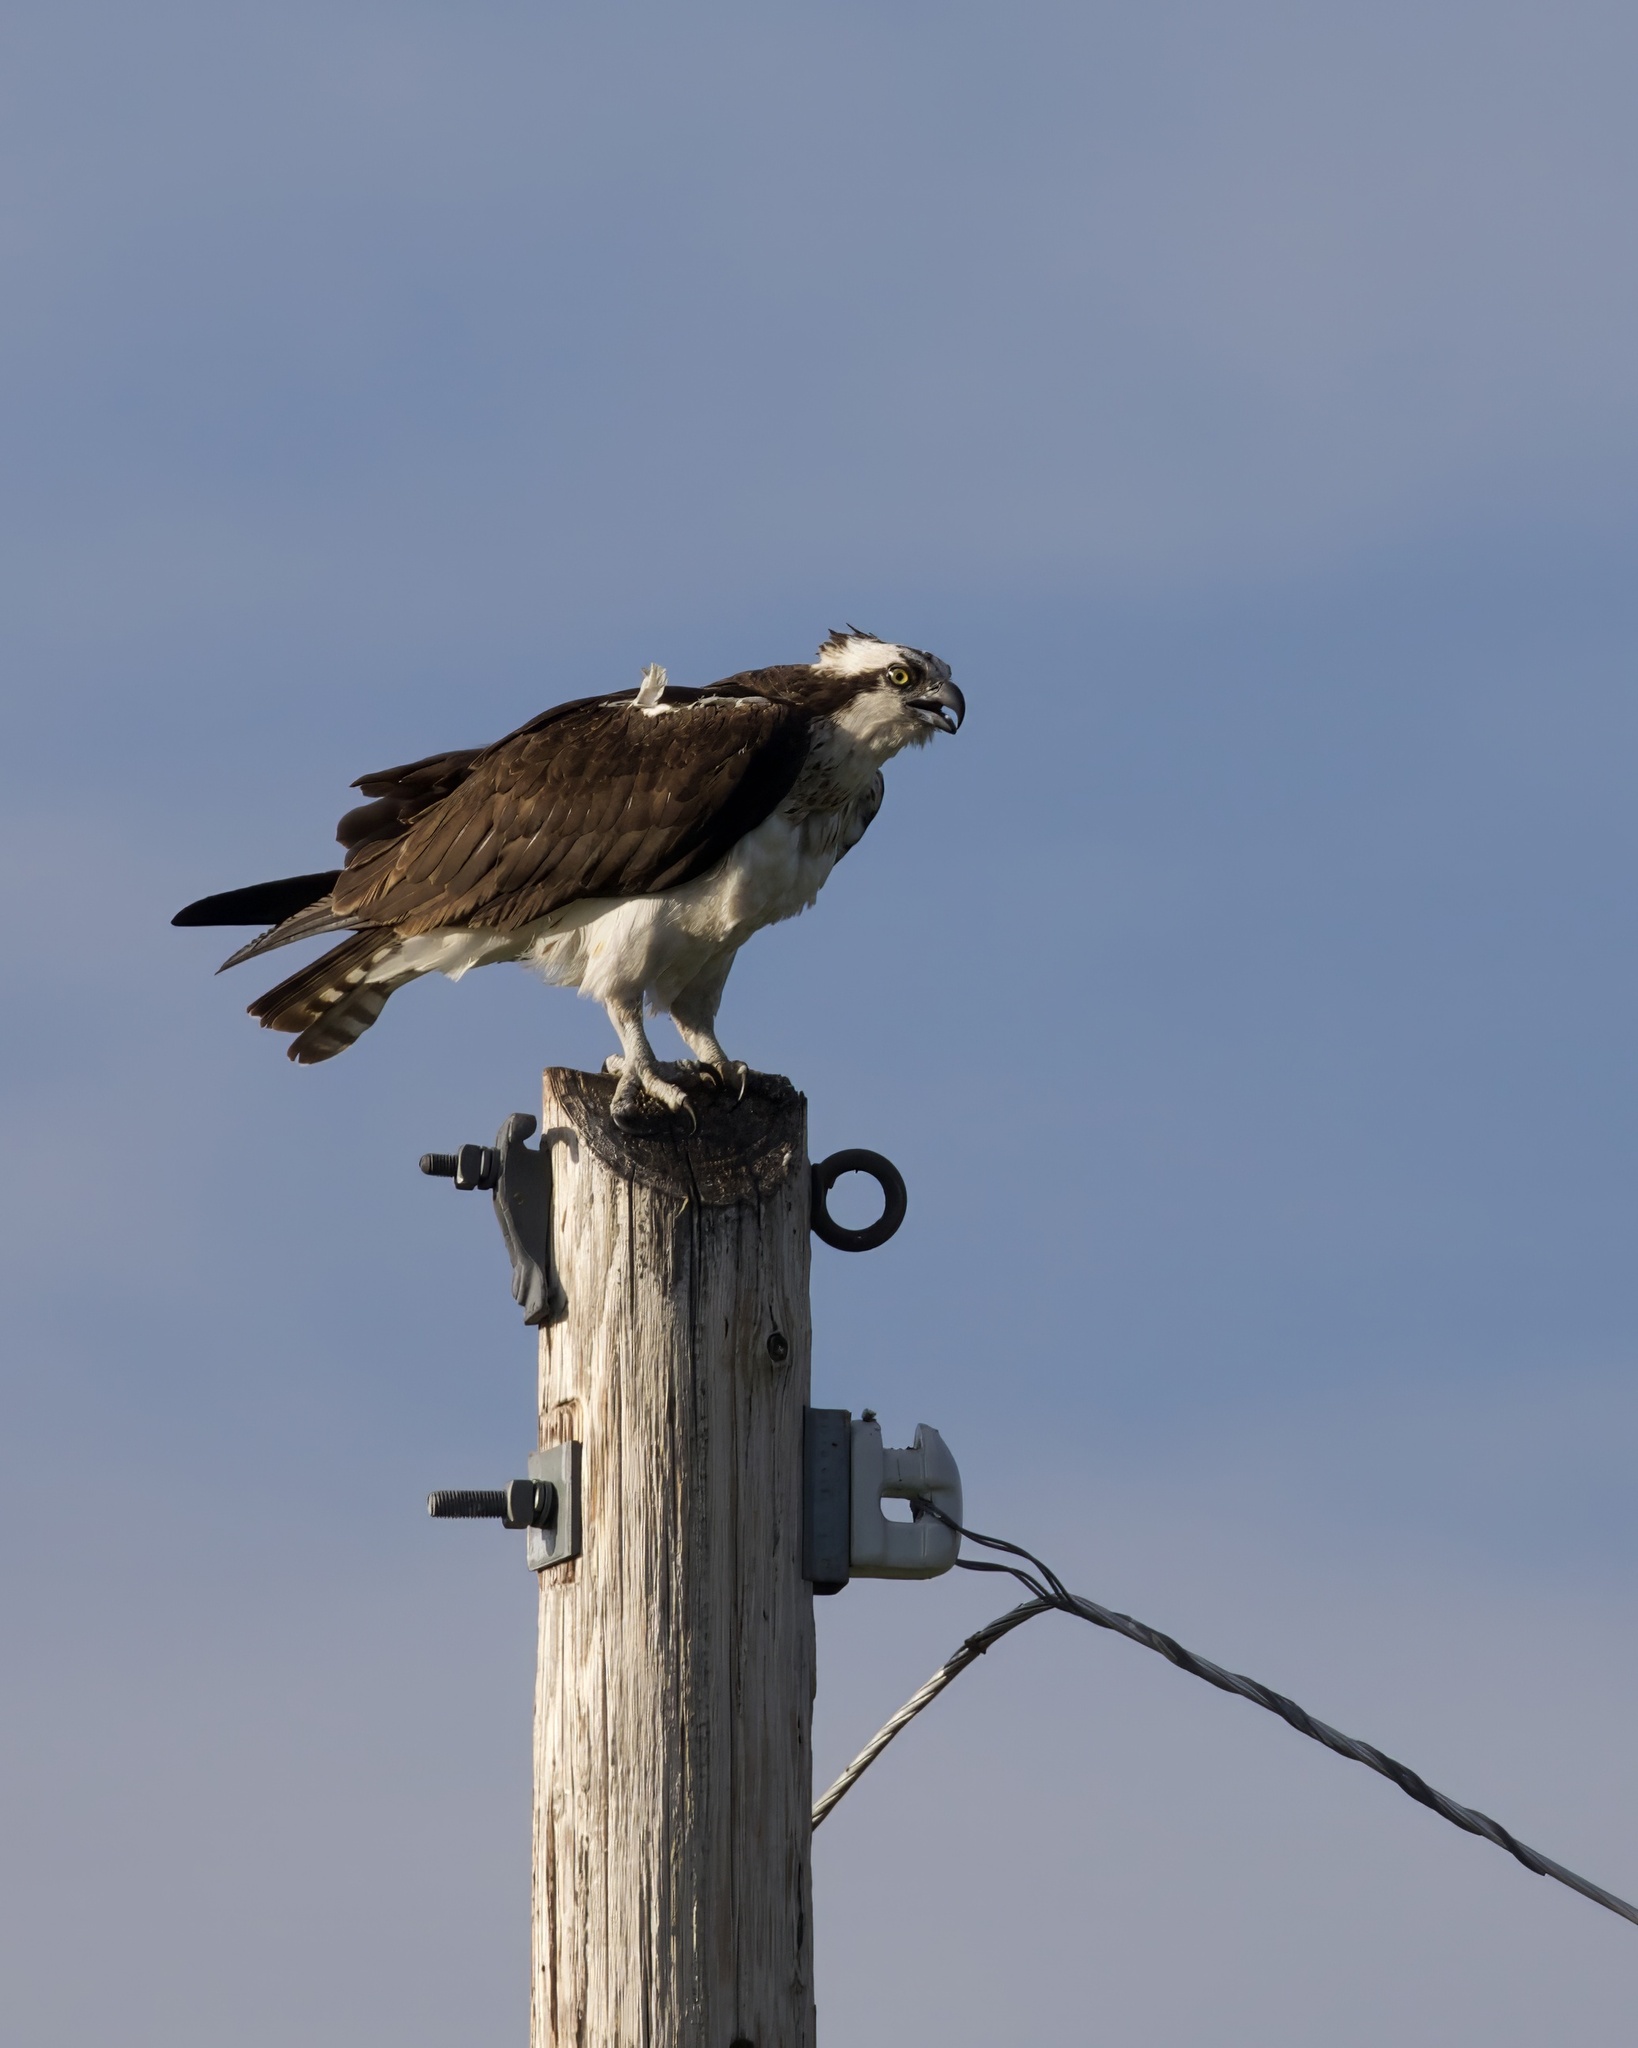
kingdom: Animalia
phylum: Chordata
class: Aves
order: Accipitriformes
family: Pandionidae
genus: Pandion
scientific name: Pandion haliaetus
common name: Osprey
